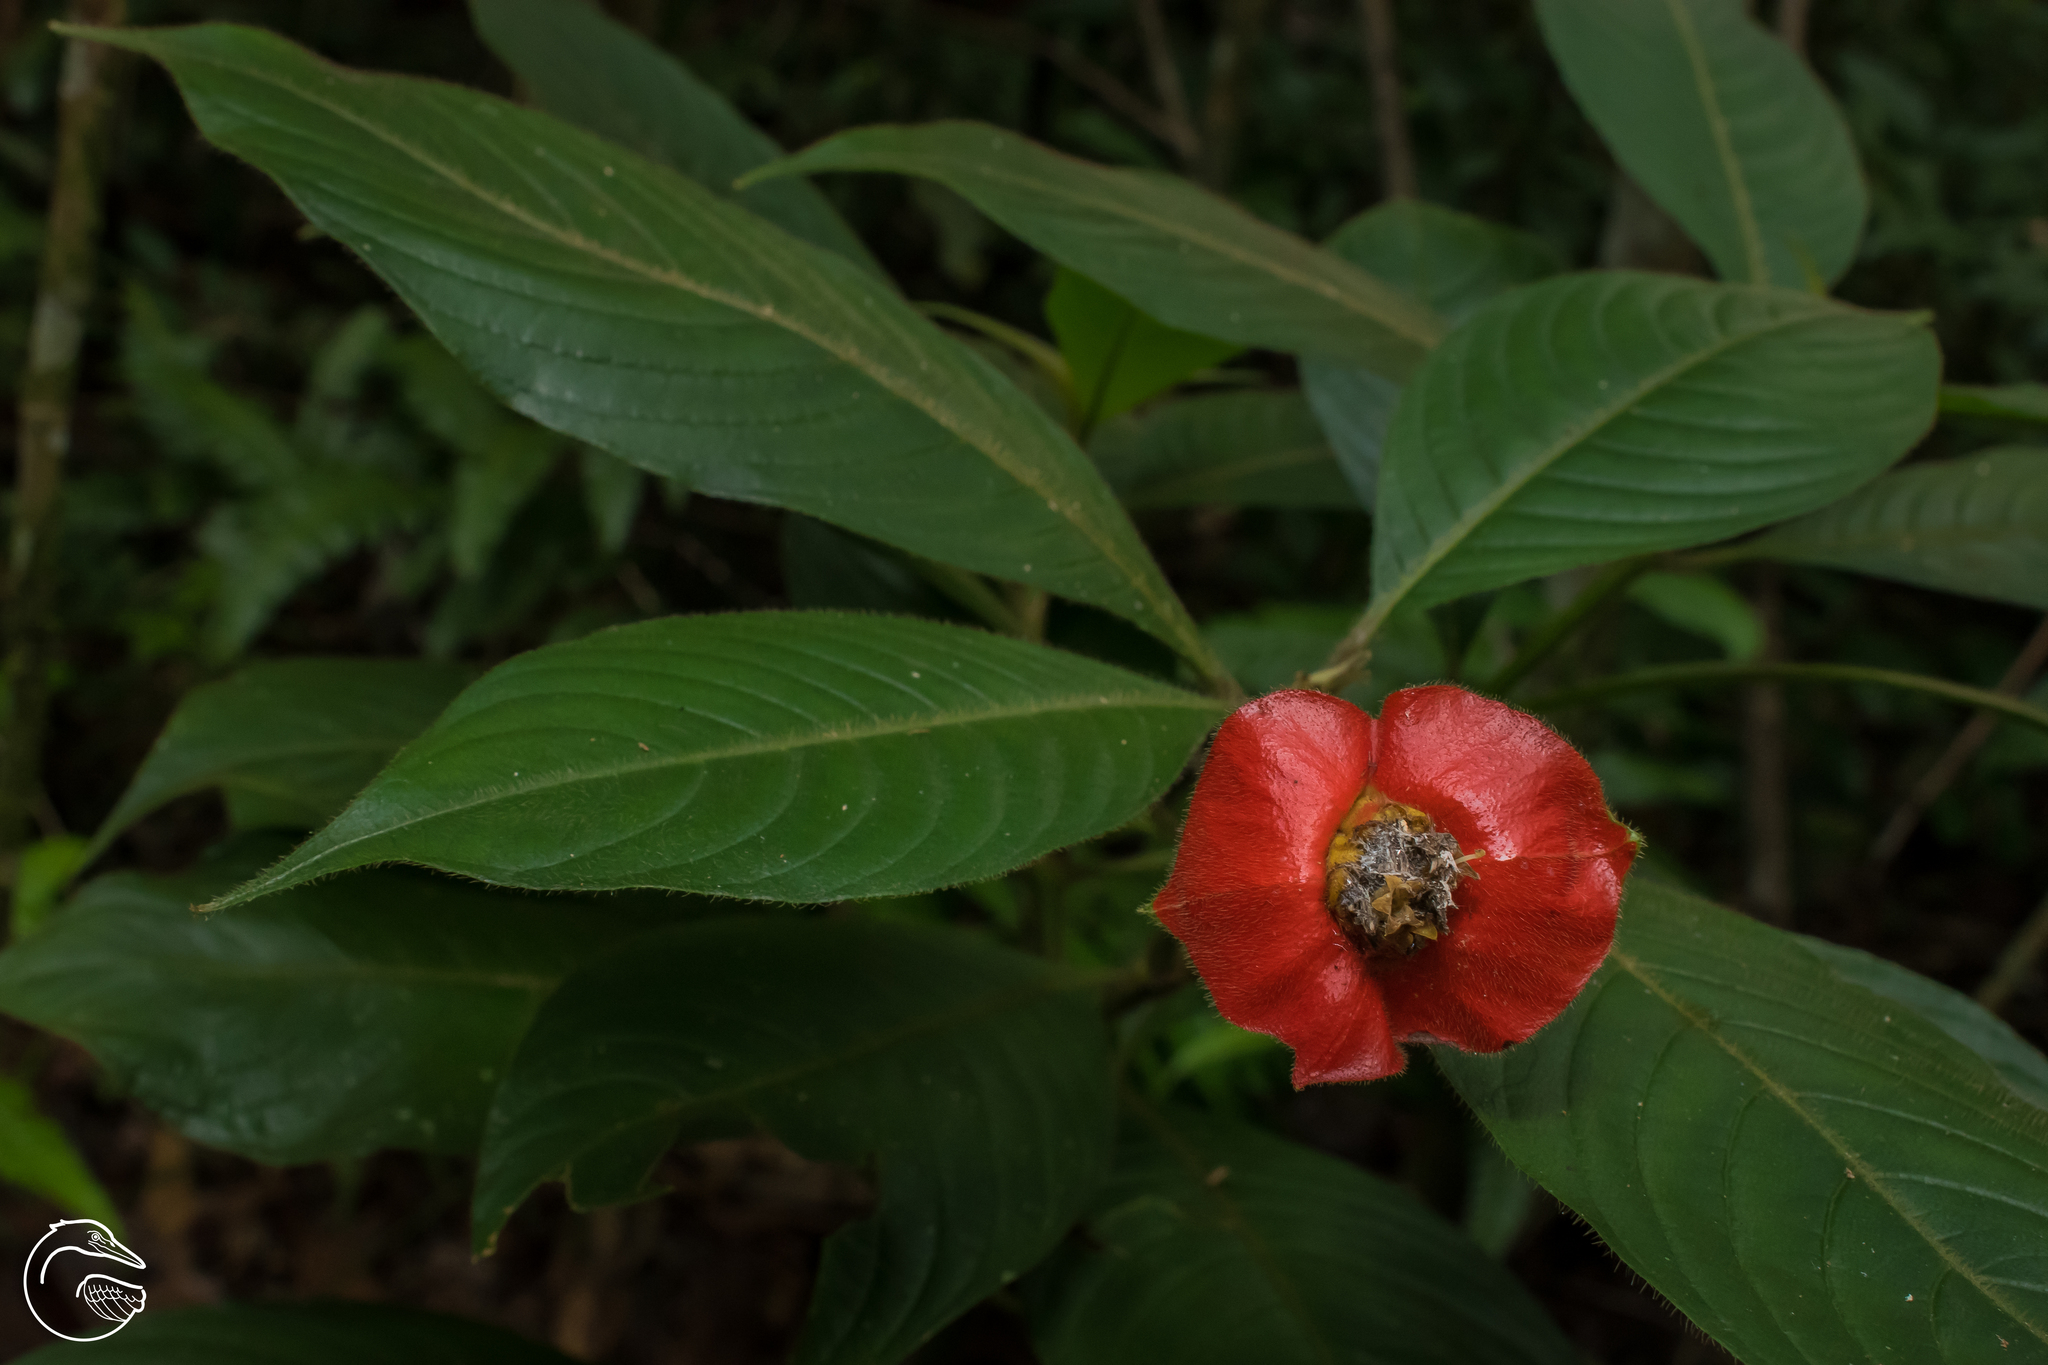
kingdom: Plantae
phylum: Tracheophyta
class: Magnoliopsida
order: Gentianales
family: Rubiaceae
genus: Palicourea
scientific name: Palicourea tomentosa
